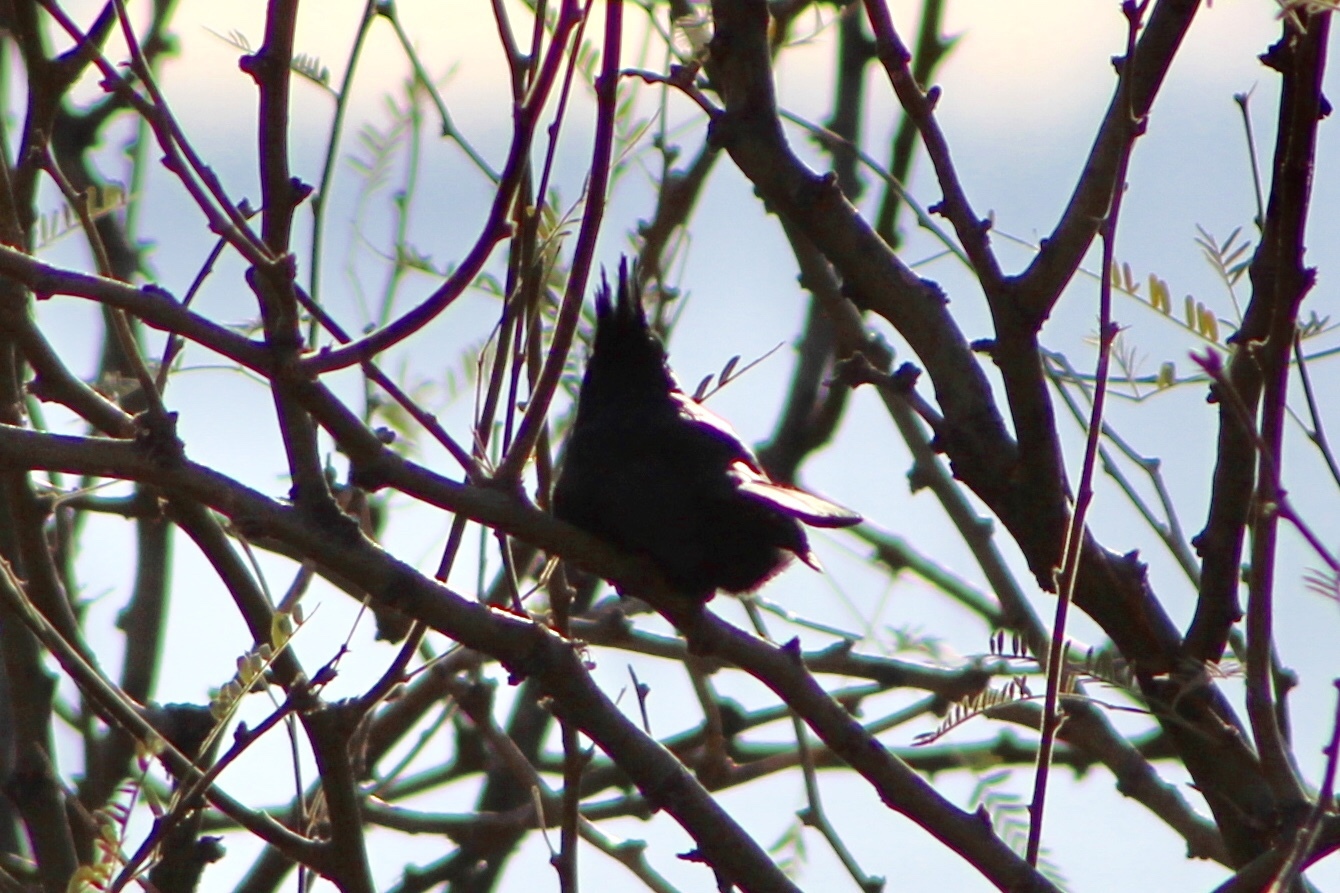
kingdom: Animalia
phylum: Chordata
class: Aves
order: Passeriformes
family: Ptilogonatidae
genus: Phainopepla
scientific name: Phainopepla nitens
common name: Phainopepla
